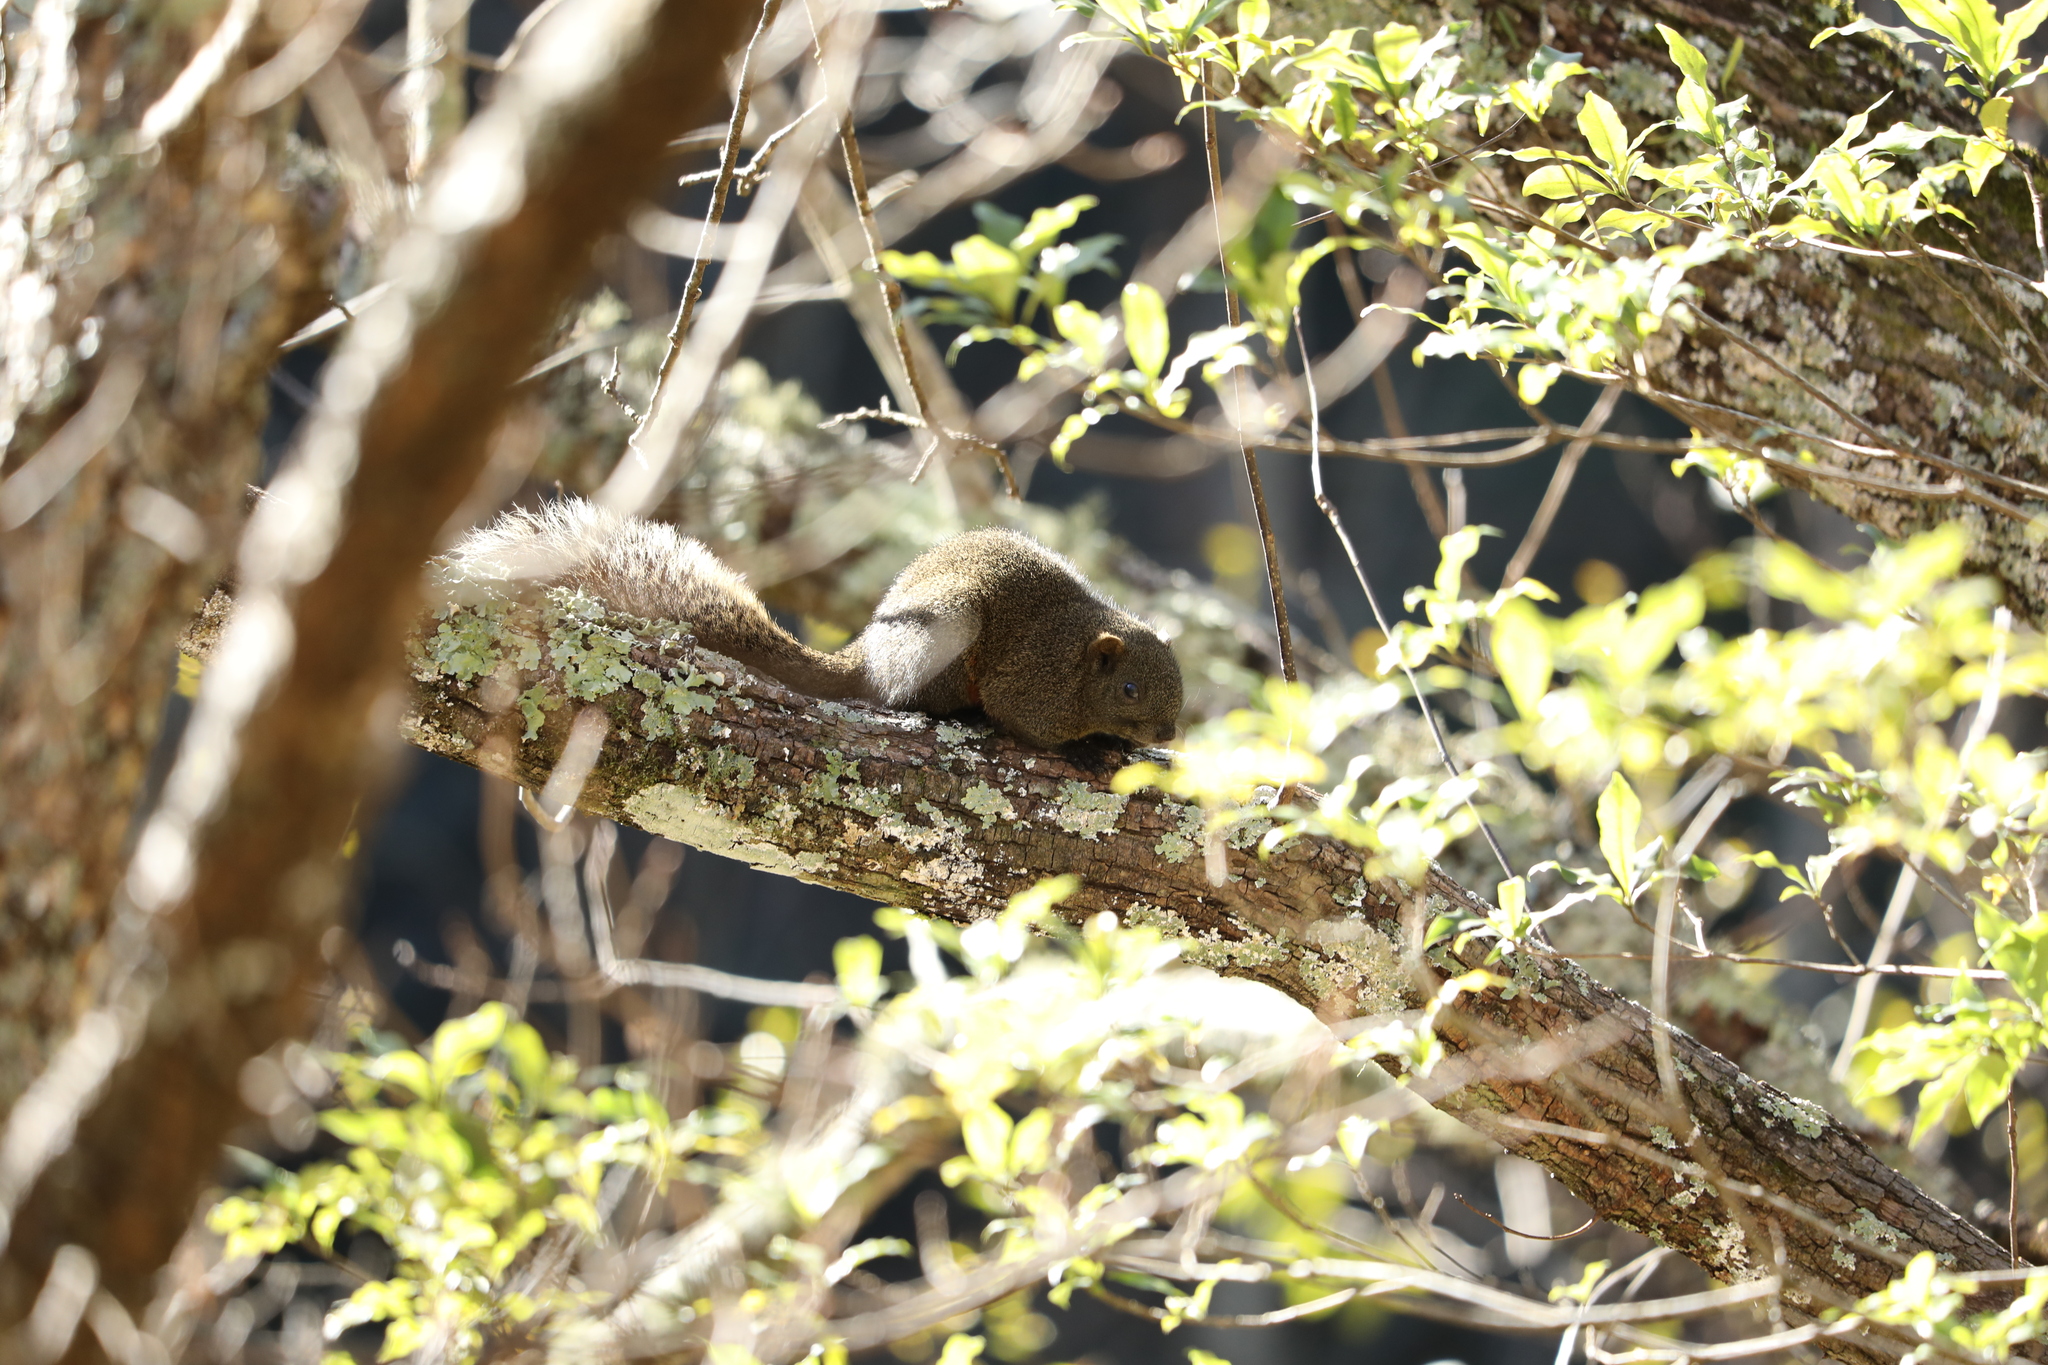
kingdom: Animalia
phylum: Chordata
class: Mammalia
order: Rodentia
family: Sciuridae
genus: Callosciurus
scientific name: Callosciurus erythraeus
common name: Pallas's squirrel
